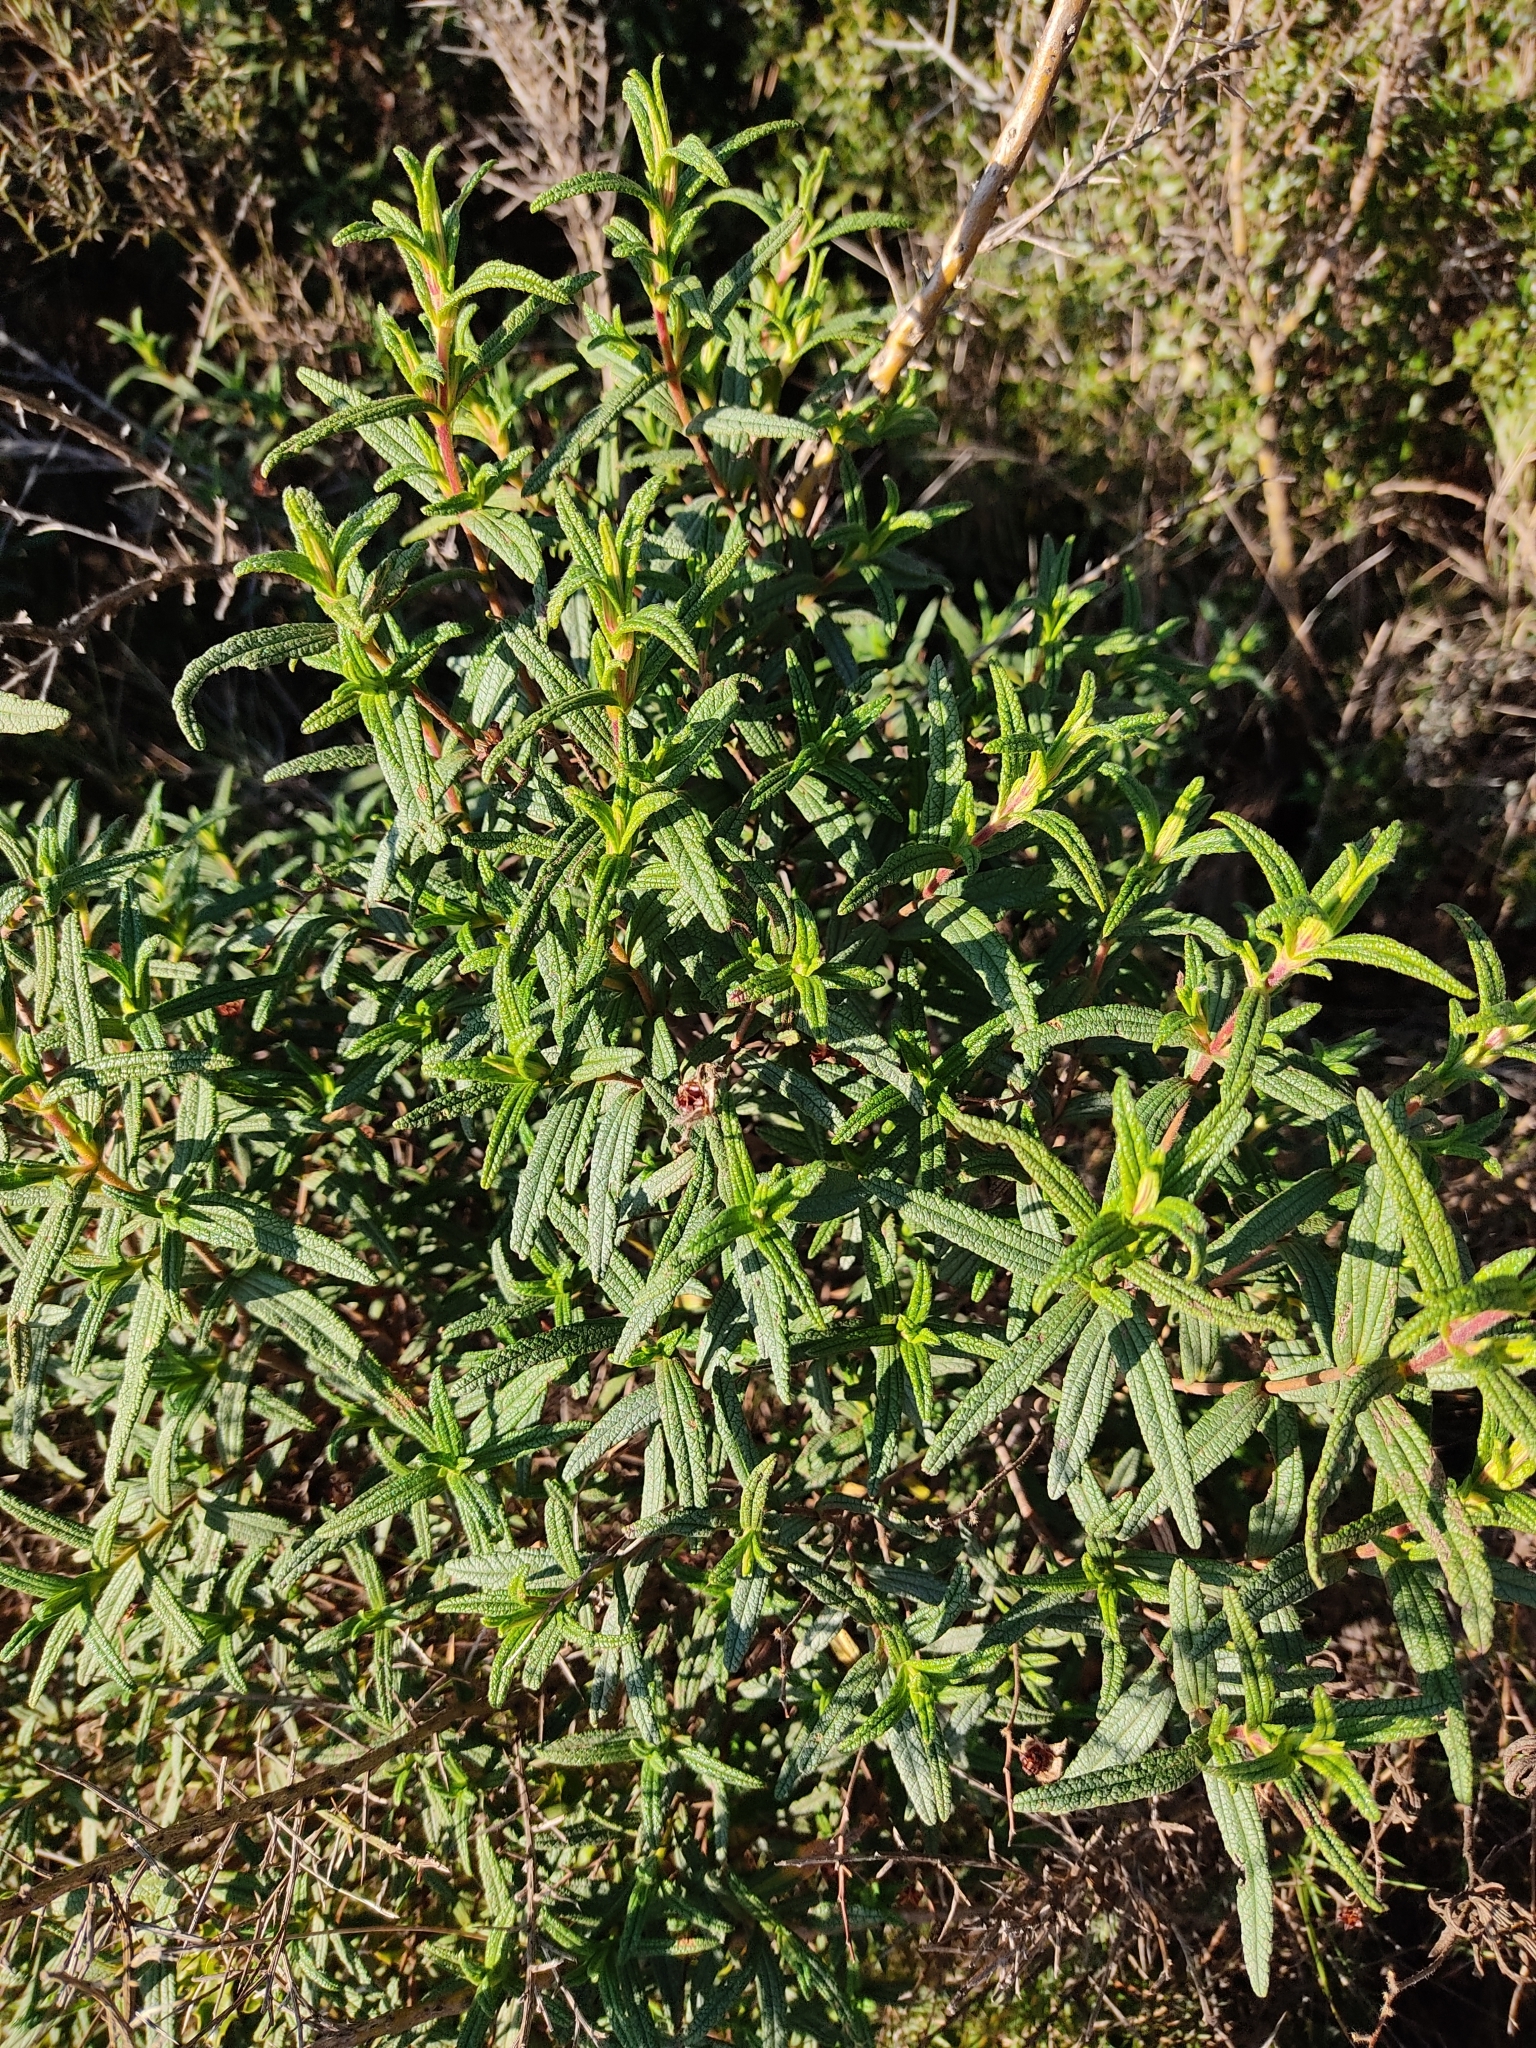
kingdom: Plantae
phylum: Tracheophyta
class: Magnoliopsida
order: Malvales
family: Cistaceae
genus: Cistus
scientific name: Cistus monspeliensis
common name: Montpelier cistus
